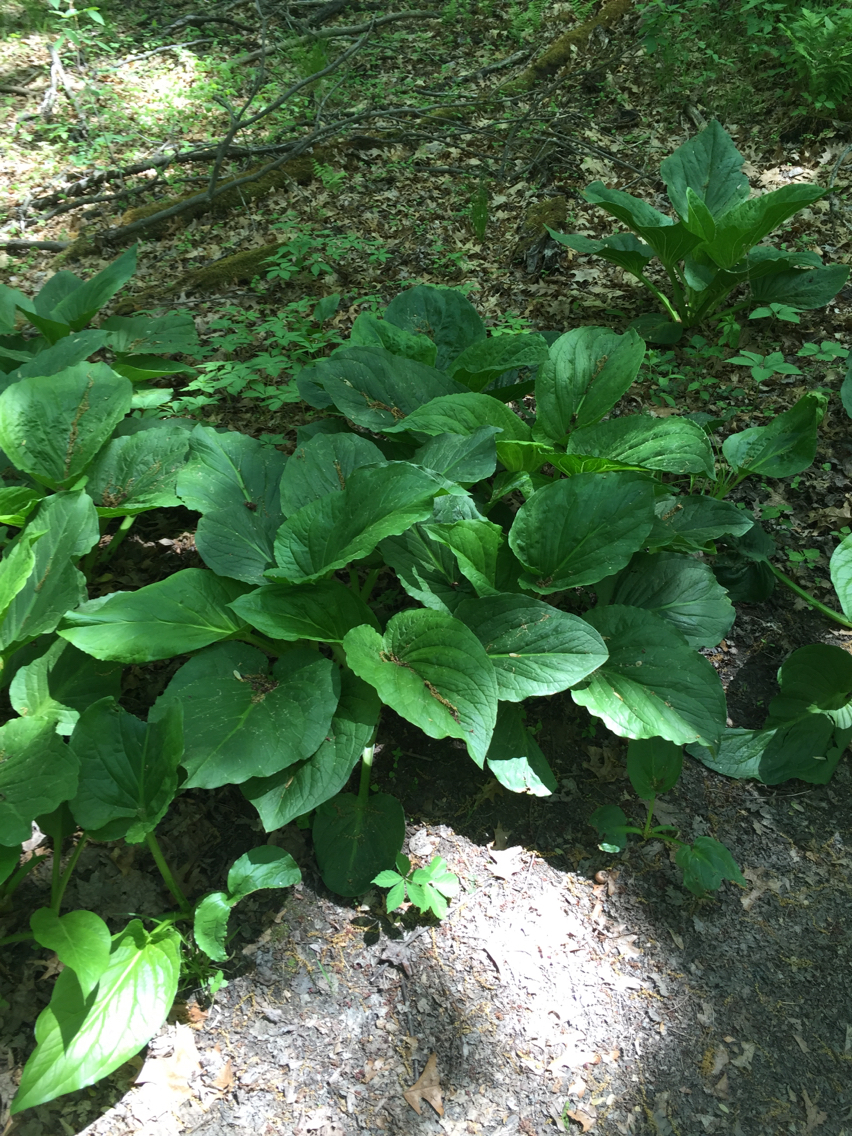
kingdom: Plantae
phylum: Tracheophyta
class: Liliopsida
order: Alismatales
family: Araceae
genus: Symplocarpus
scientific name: Symplocarpus foetidus
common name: Eastern skunk cabbage
